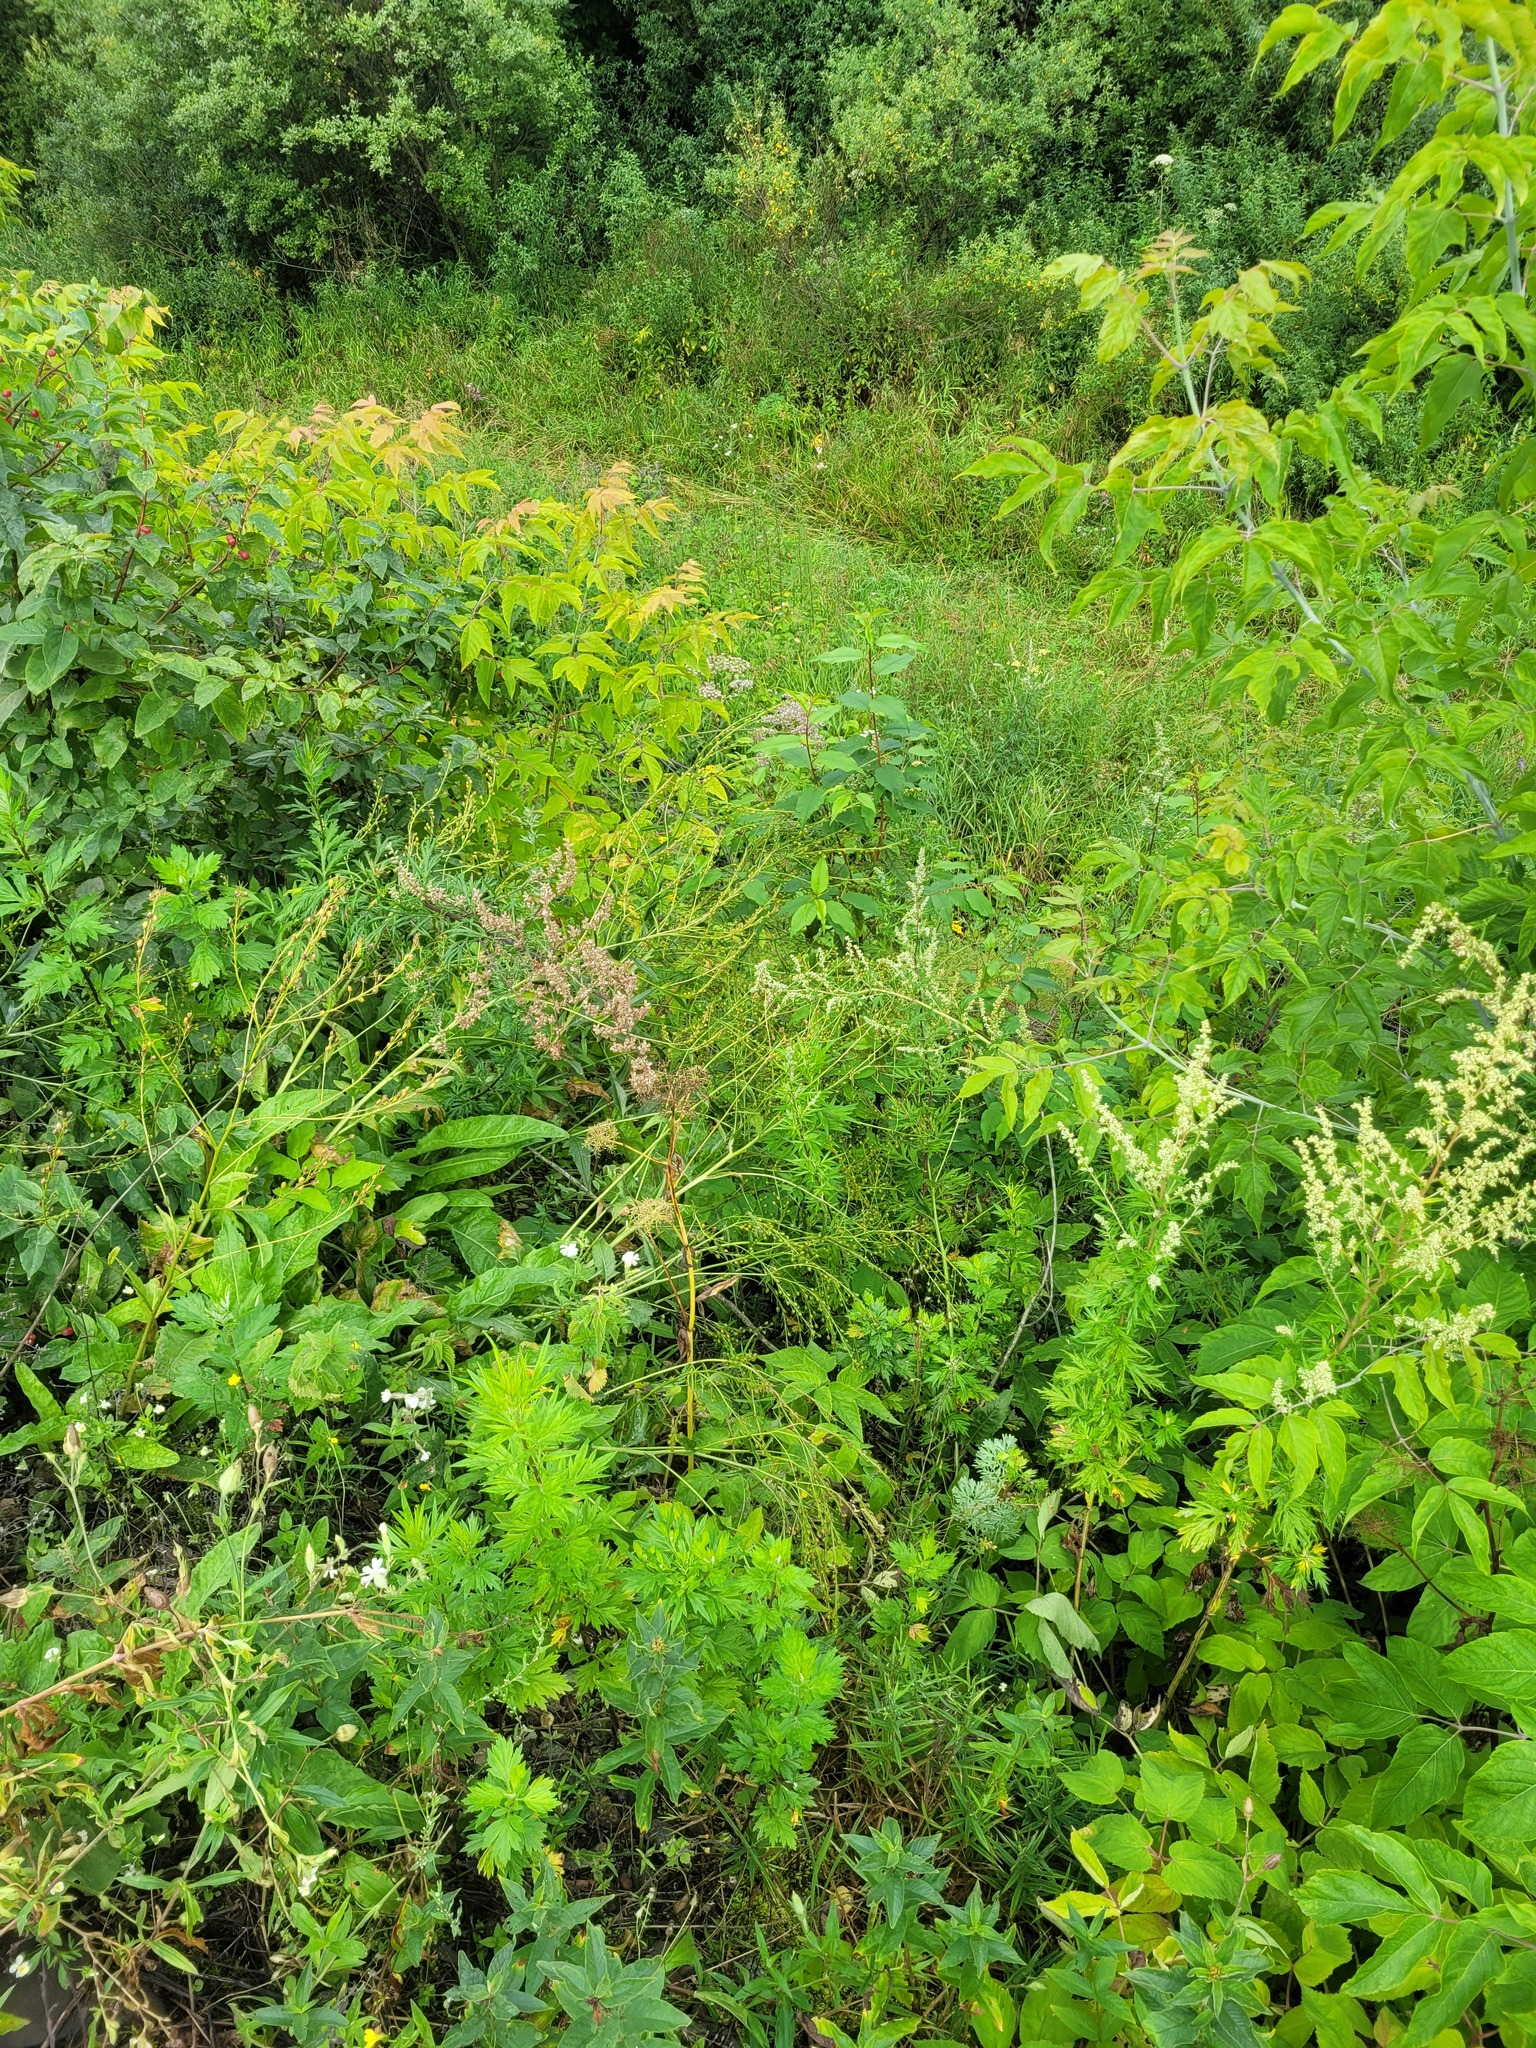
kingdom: Plantae
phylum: Tracheophyta
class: Magnoliopsida
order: Asterales
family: Asteraceae
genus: Artemisia
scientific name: Artemisia vulgaris
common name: Mugwort
